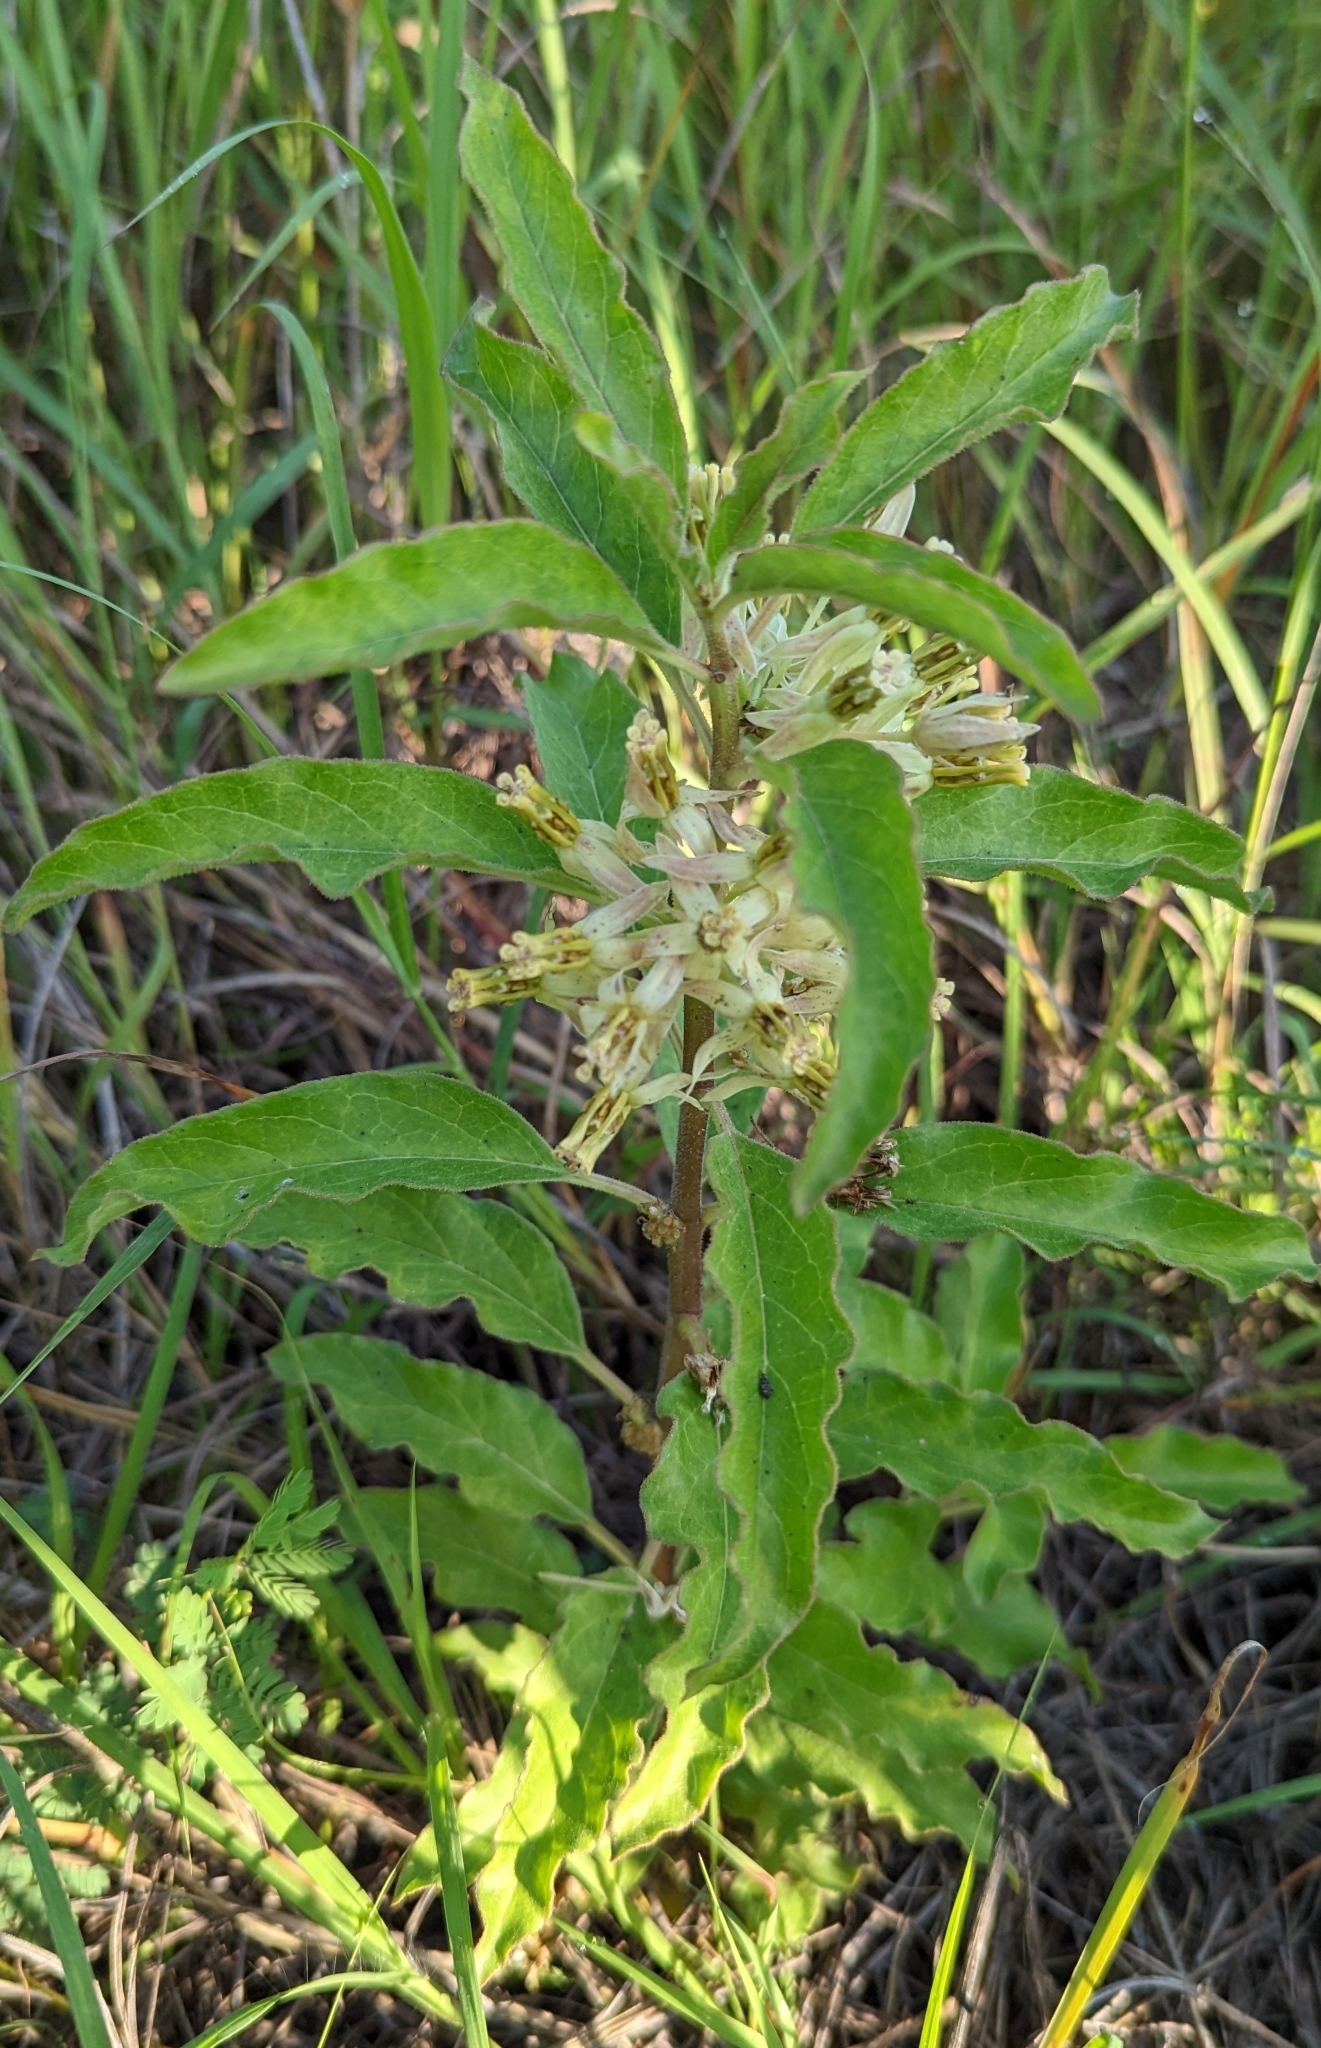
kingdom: Plantae
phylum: Tracheophyta
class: Magnoliopsida
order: Gentianales
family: Apocynaceae
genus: Asclepias
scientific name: Asclepias oenotheroides
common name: Zizotes milkweed
